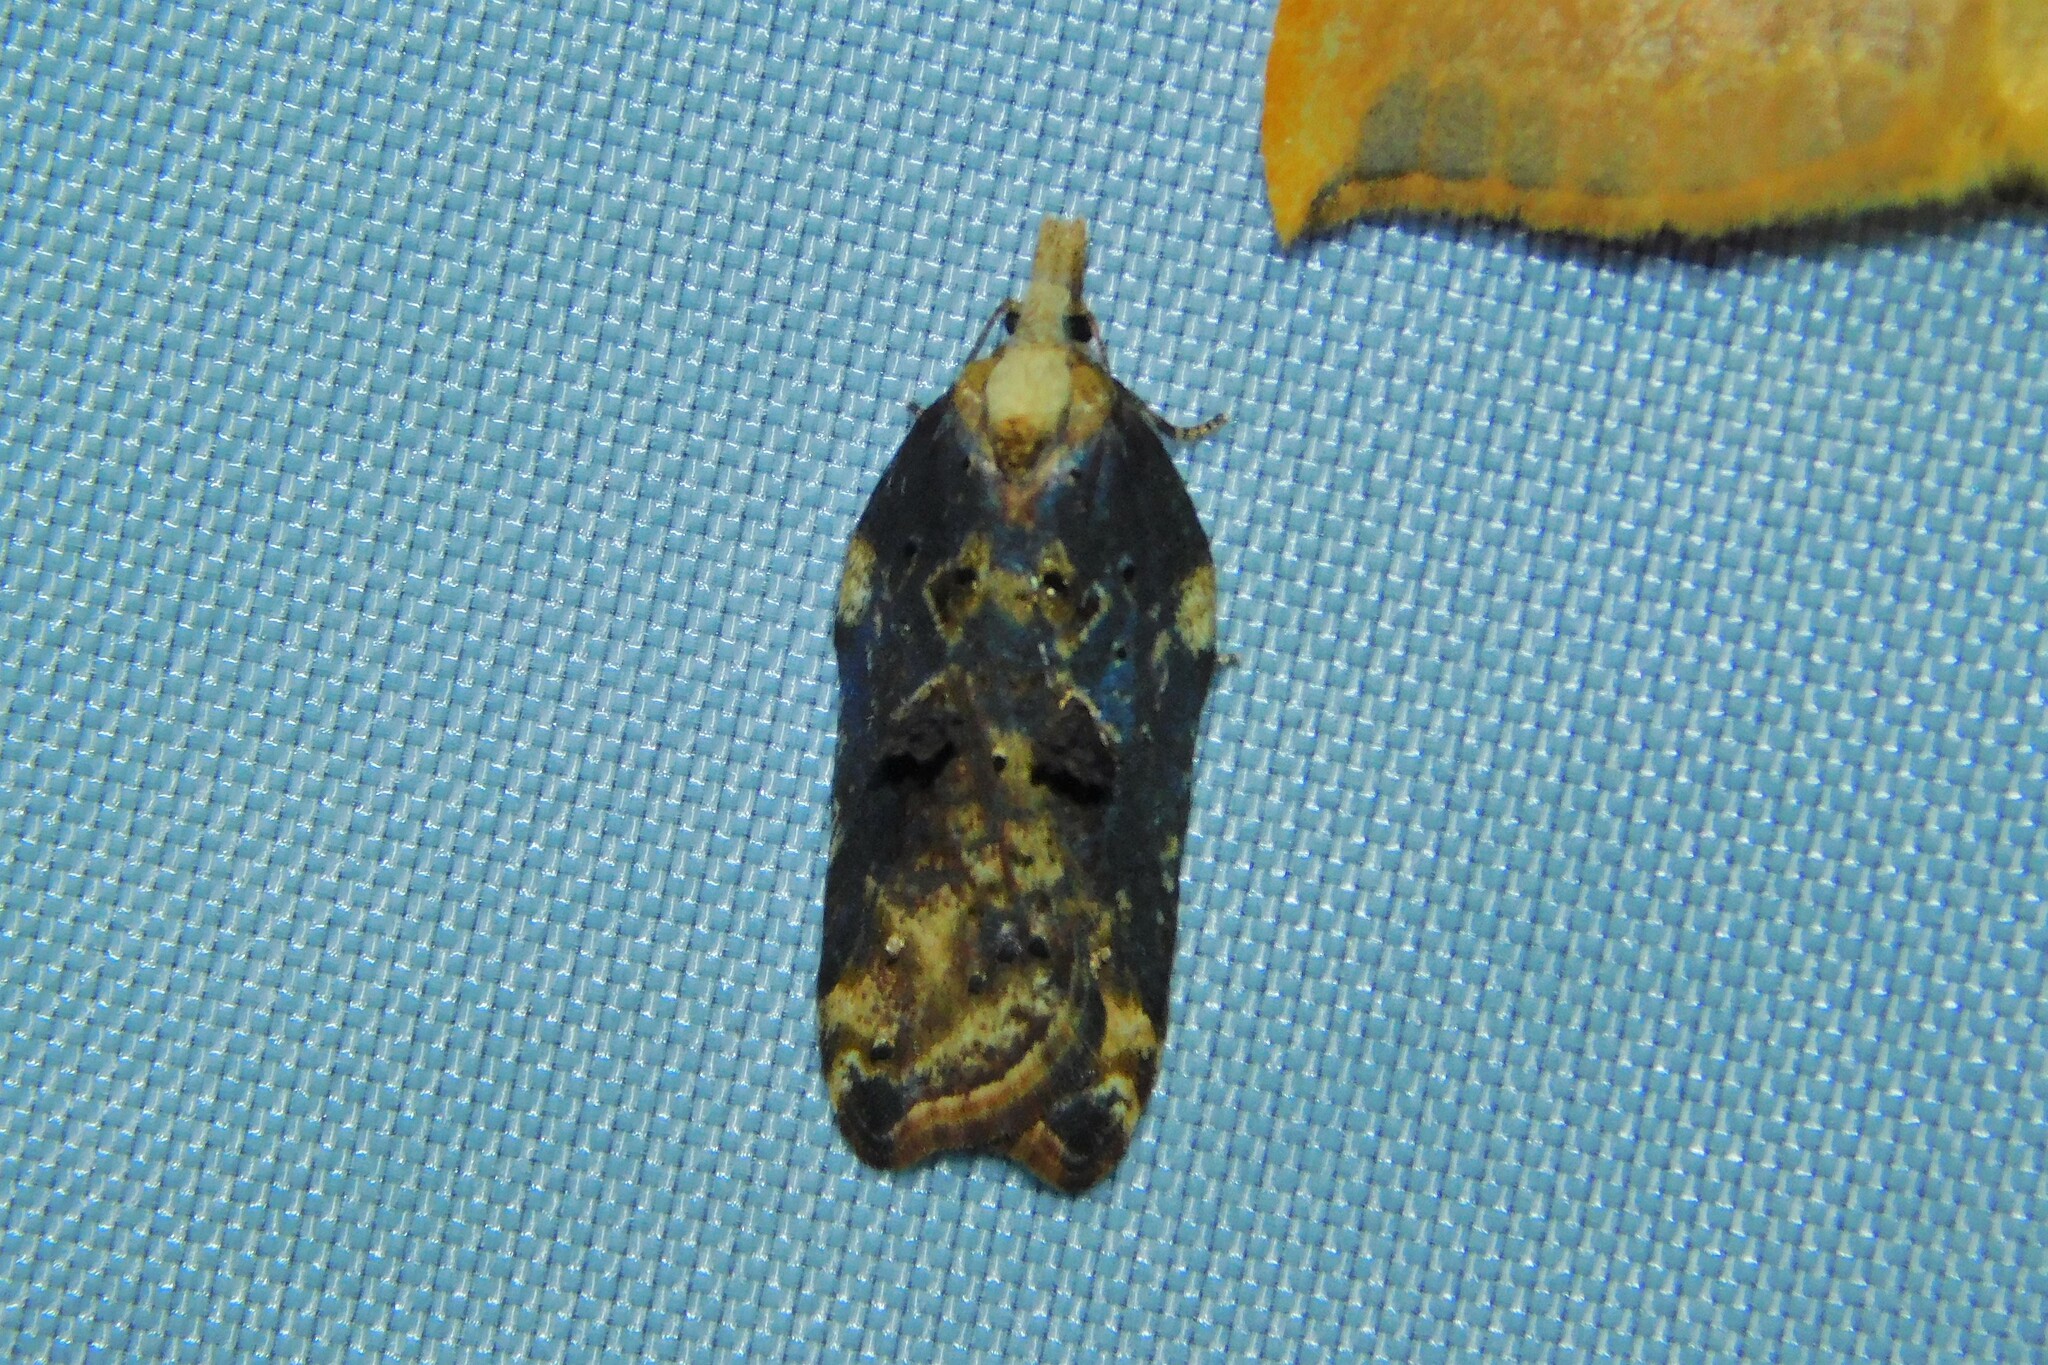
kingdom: Animalia
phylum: Arthropoda
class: Insecta
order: Lepidoptera
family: Tortricidae
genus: Acleris
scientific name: Acleris cristana
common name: Tufted button
